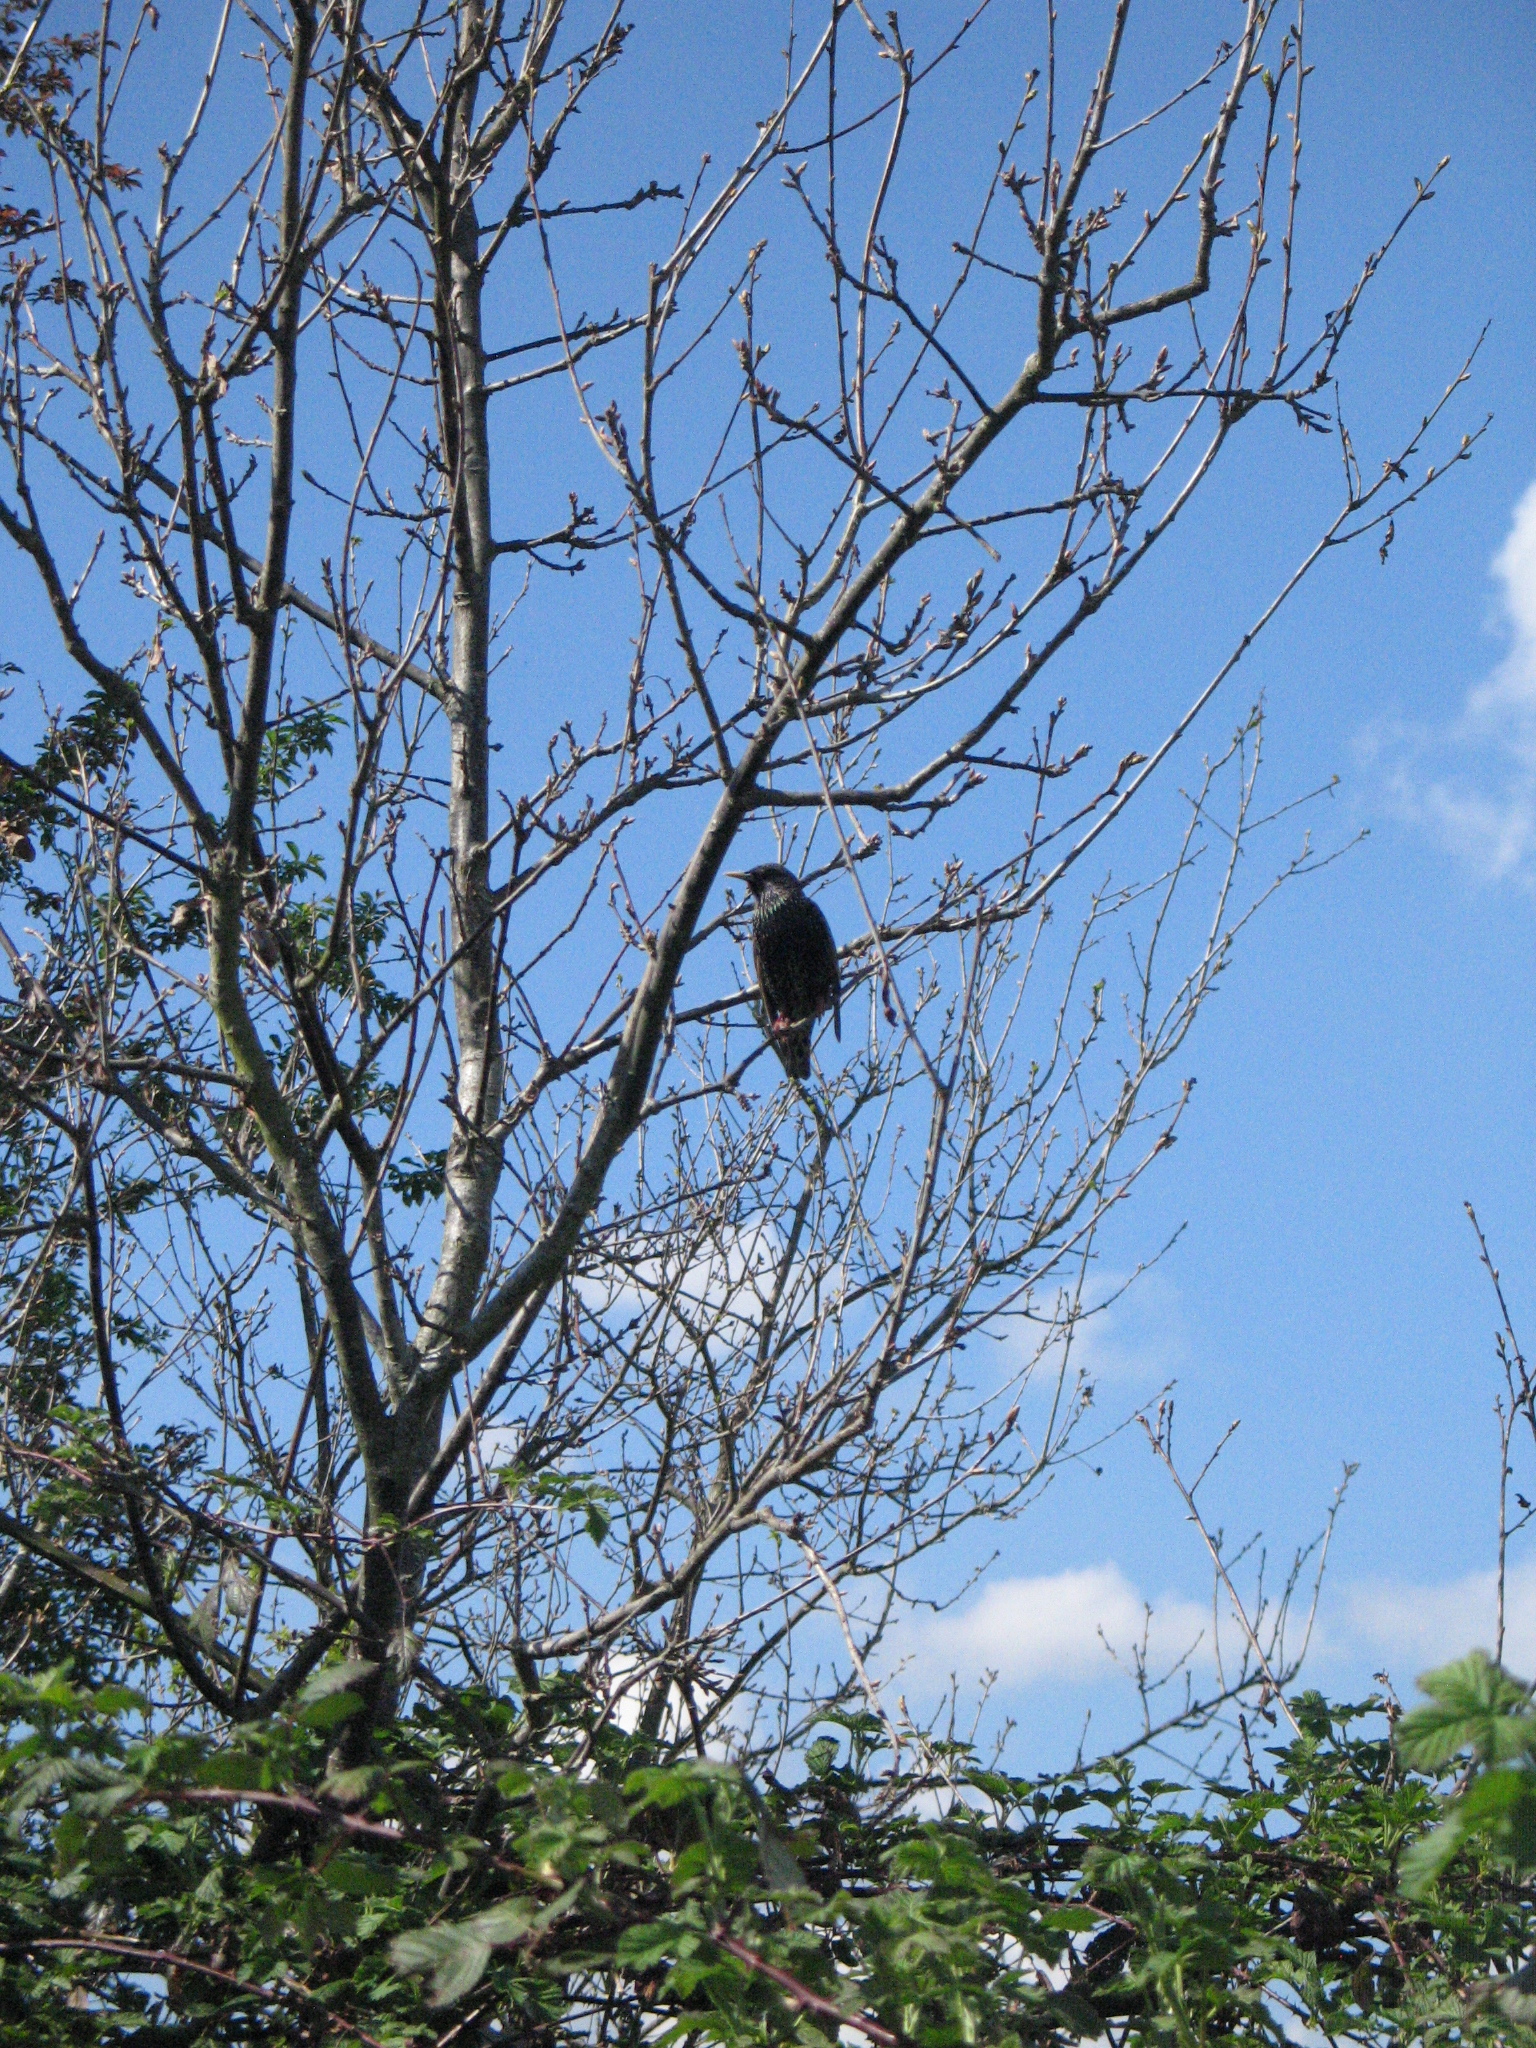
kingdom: Animalia
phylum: Chordata
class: Aves
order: Passeriformes
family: Sturnidae
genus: Sturnus
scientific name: Sturnus vulgaris
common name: Common starling
